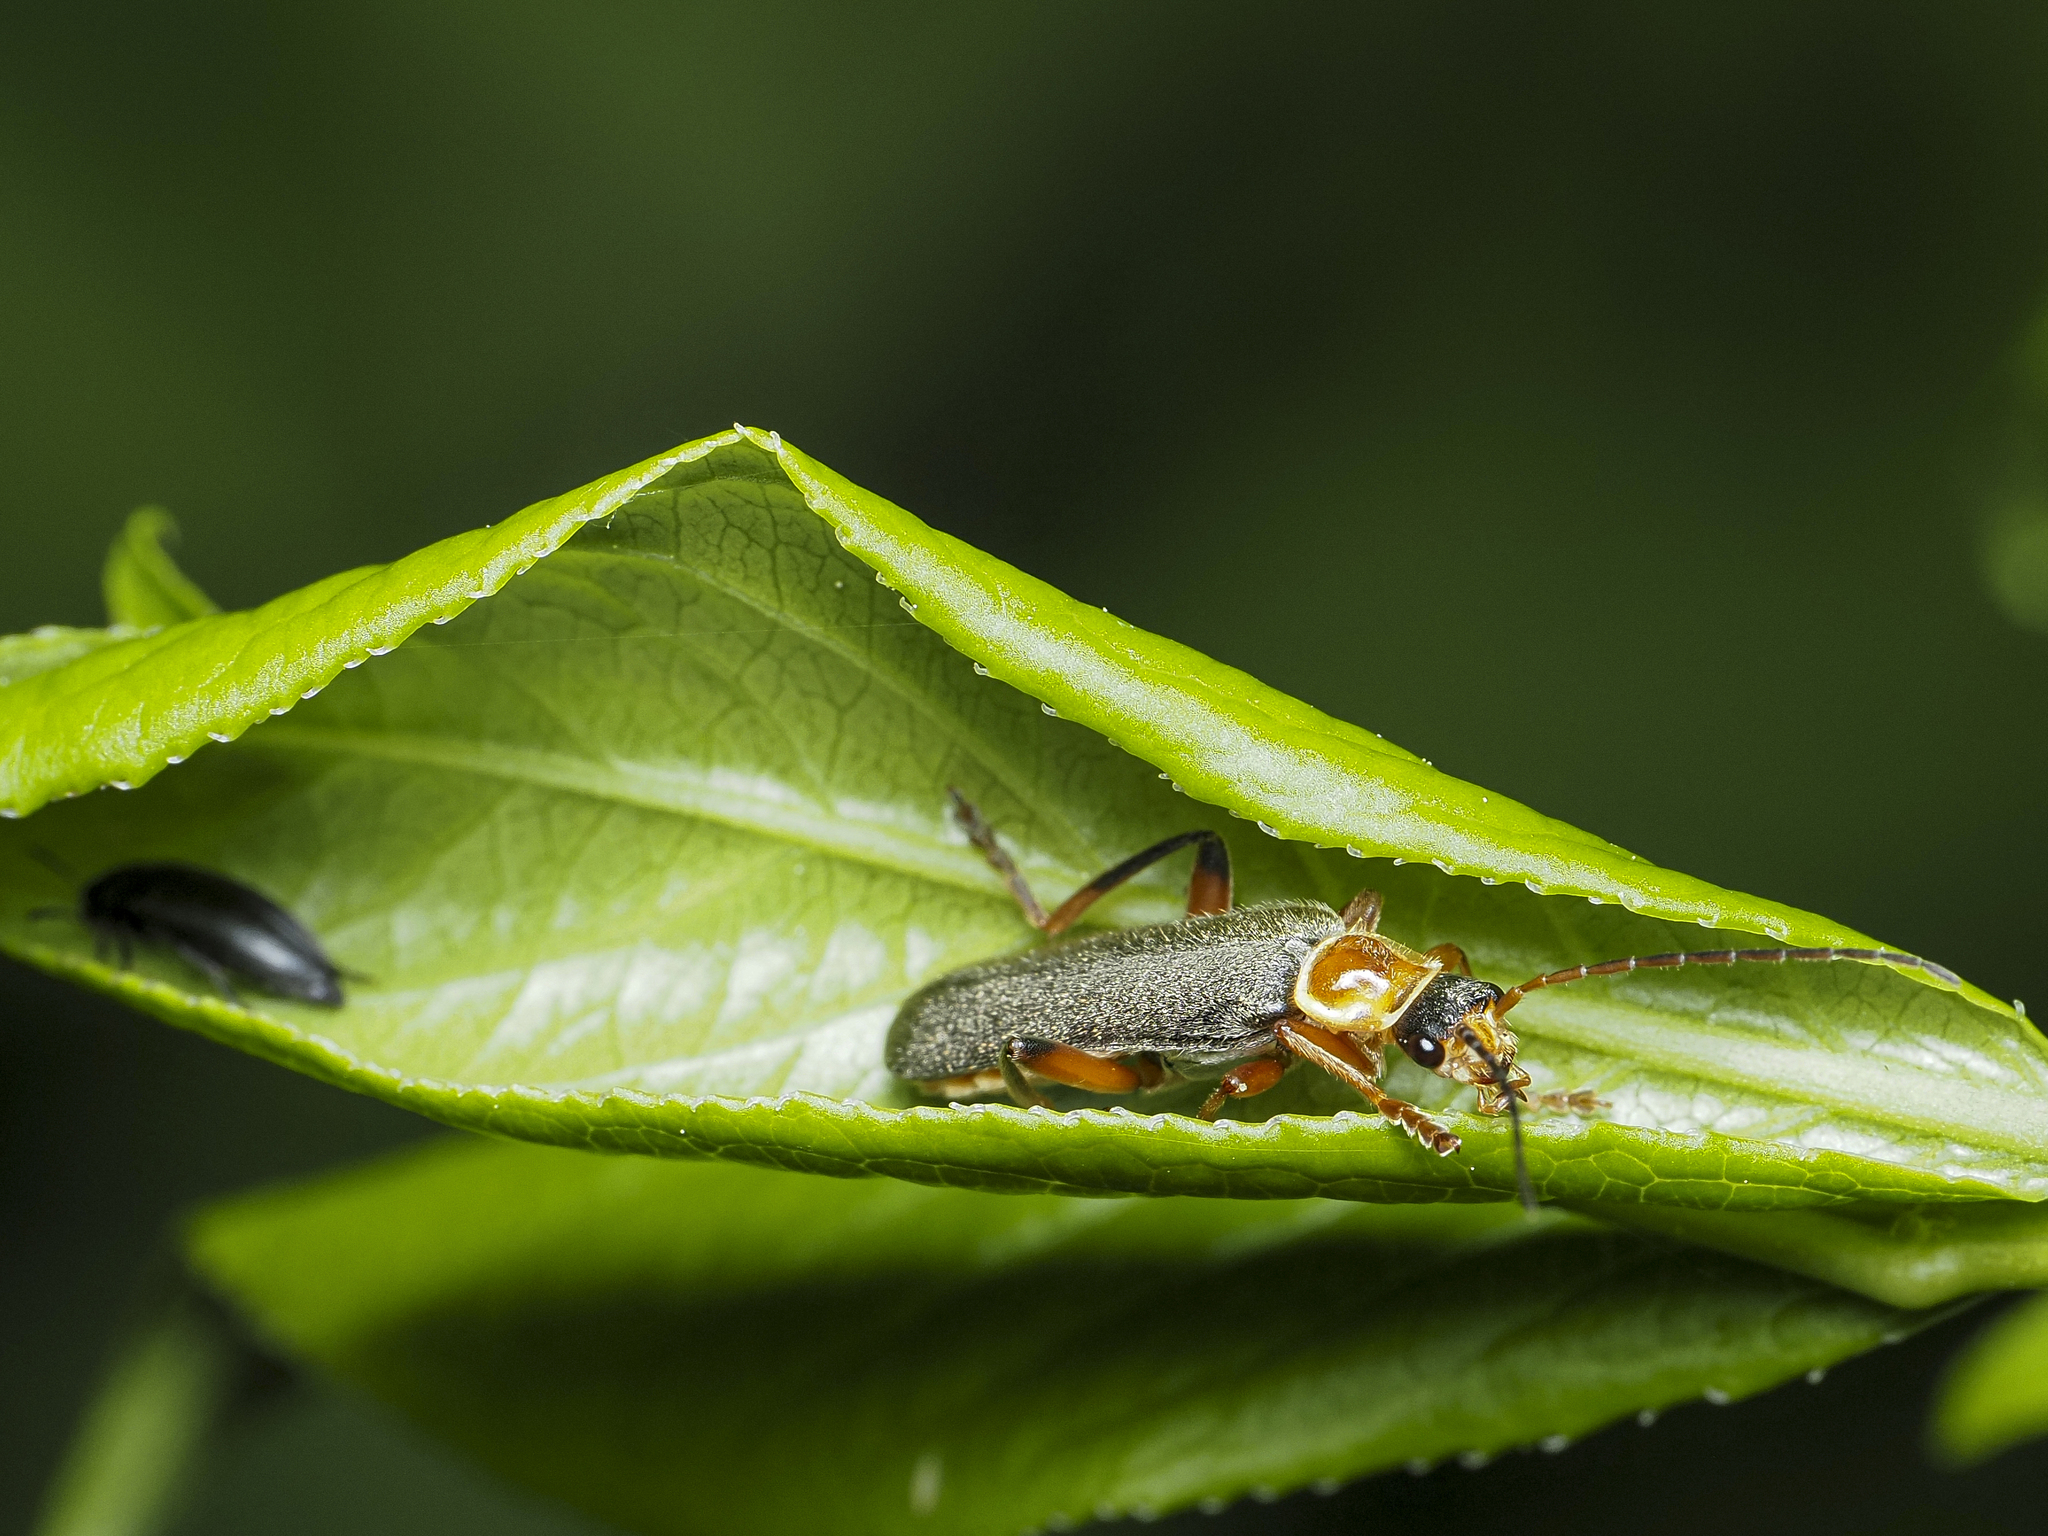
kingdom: Animalia
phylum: Arthropoda
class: Insecta
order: Coleoptera
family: Cantharidae
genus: Cantharis
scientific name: Cantharis nigricans
